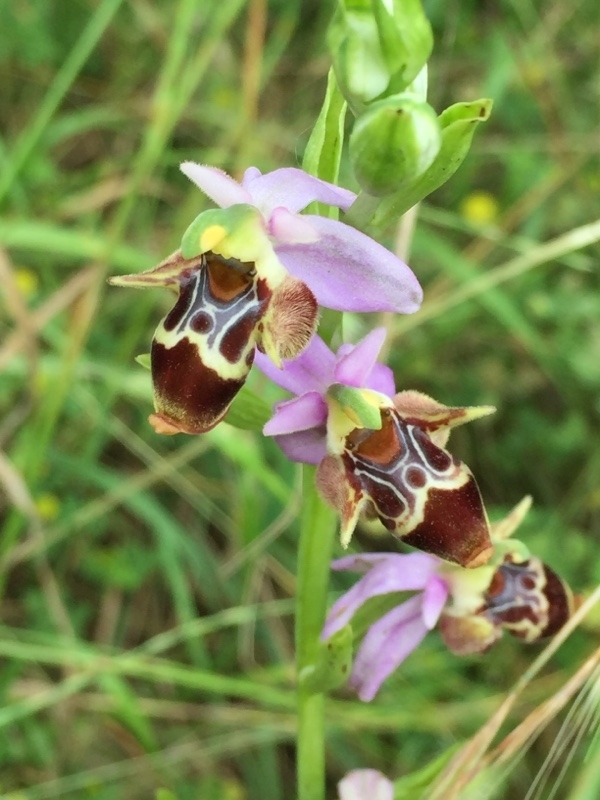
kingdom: Plantae
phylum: Tracheophyta
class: Liliopsida
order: Asparagales
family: Orchidaceae
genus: Ophrys
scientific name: Ophrys
